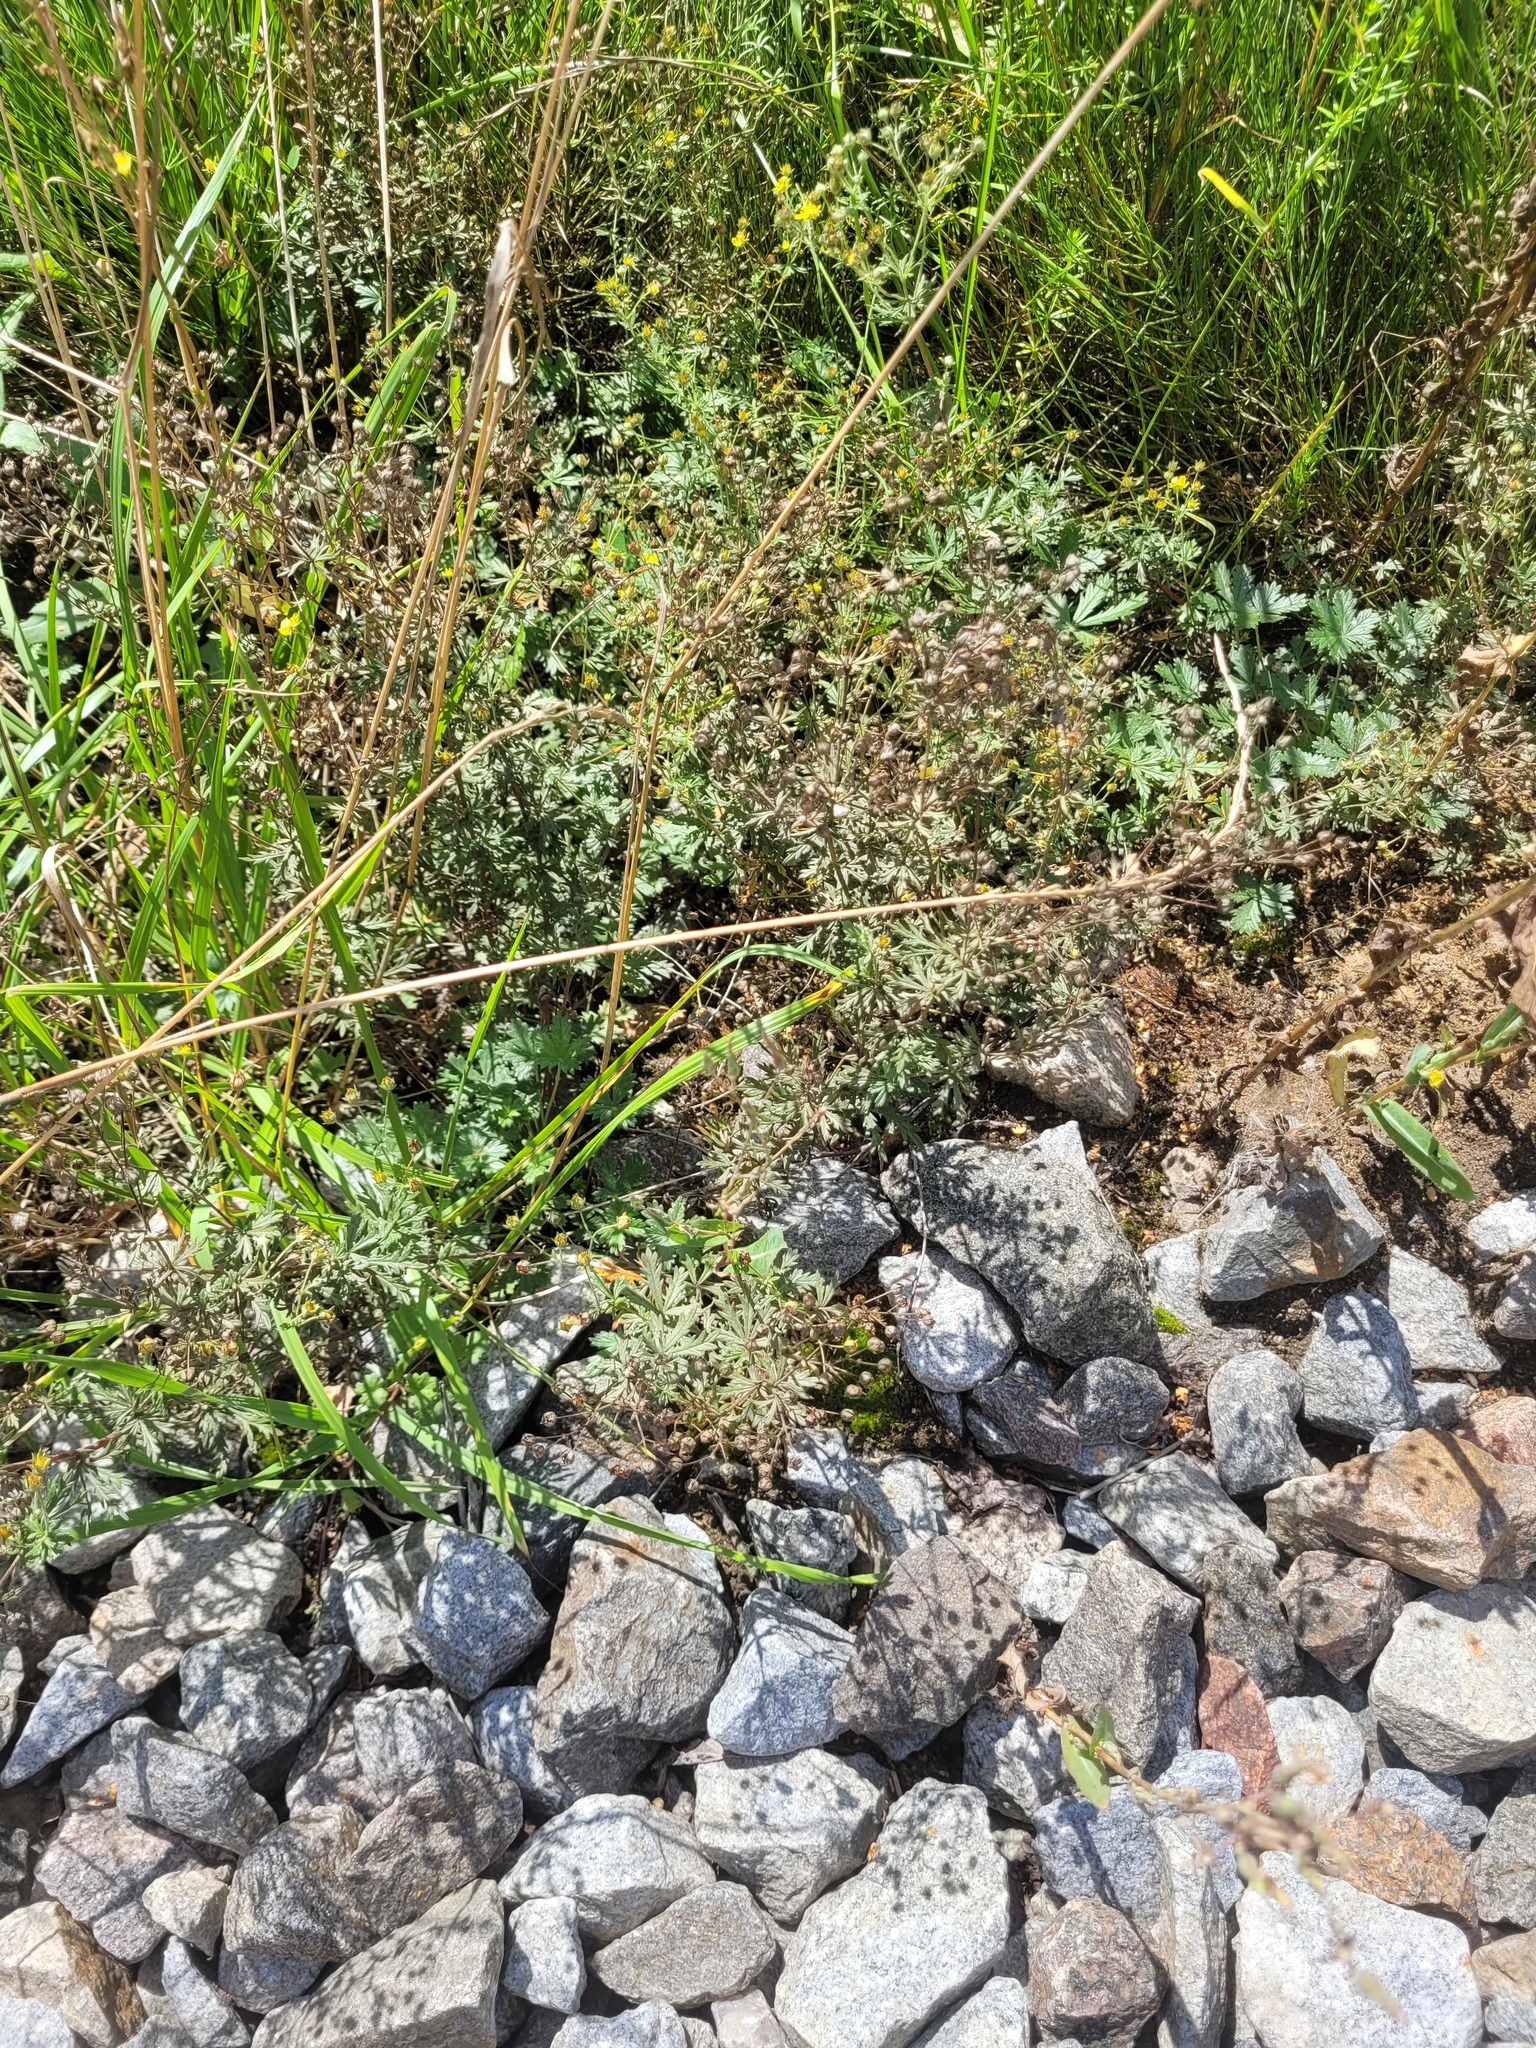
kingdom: Plantae
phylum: Tracheophyta
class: Magnoliopsida
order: Rosales
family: Rosaceae
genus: Potentilla
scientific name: Potentilla argentea
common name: Hoary cinquefoil
